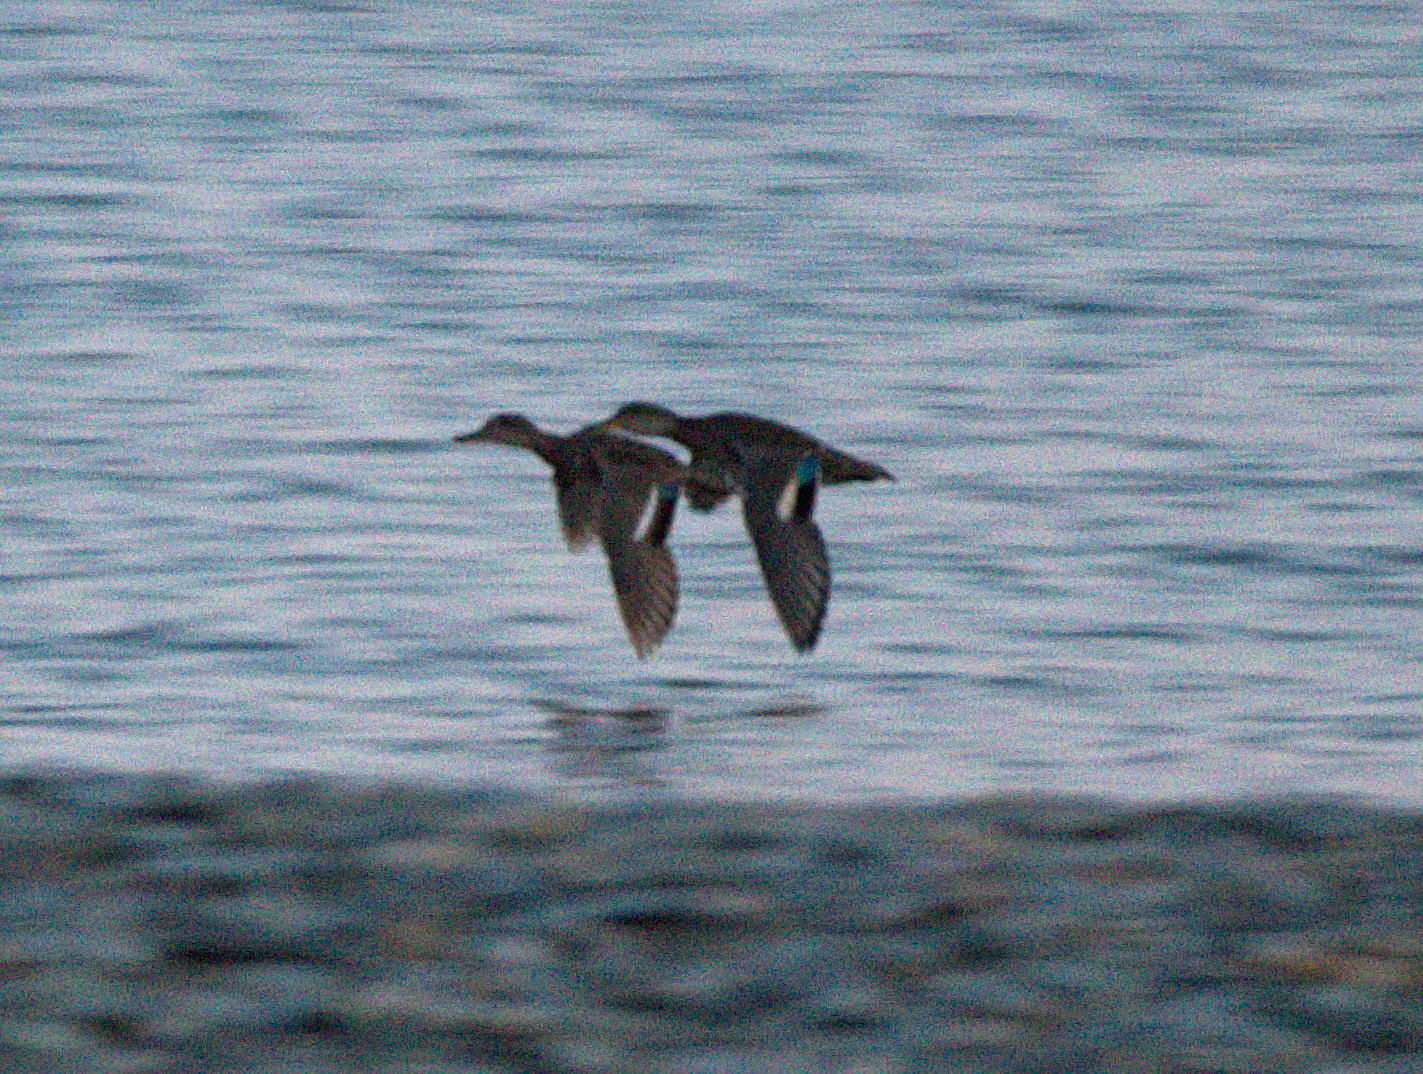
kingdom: Animalia
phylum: Chordata
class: Aves
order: Anseriformes
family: Anatidae
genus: Anas
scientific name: Anas crecca
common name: Eurasian teal
